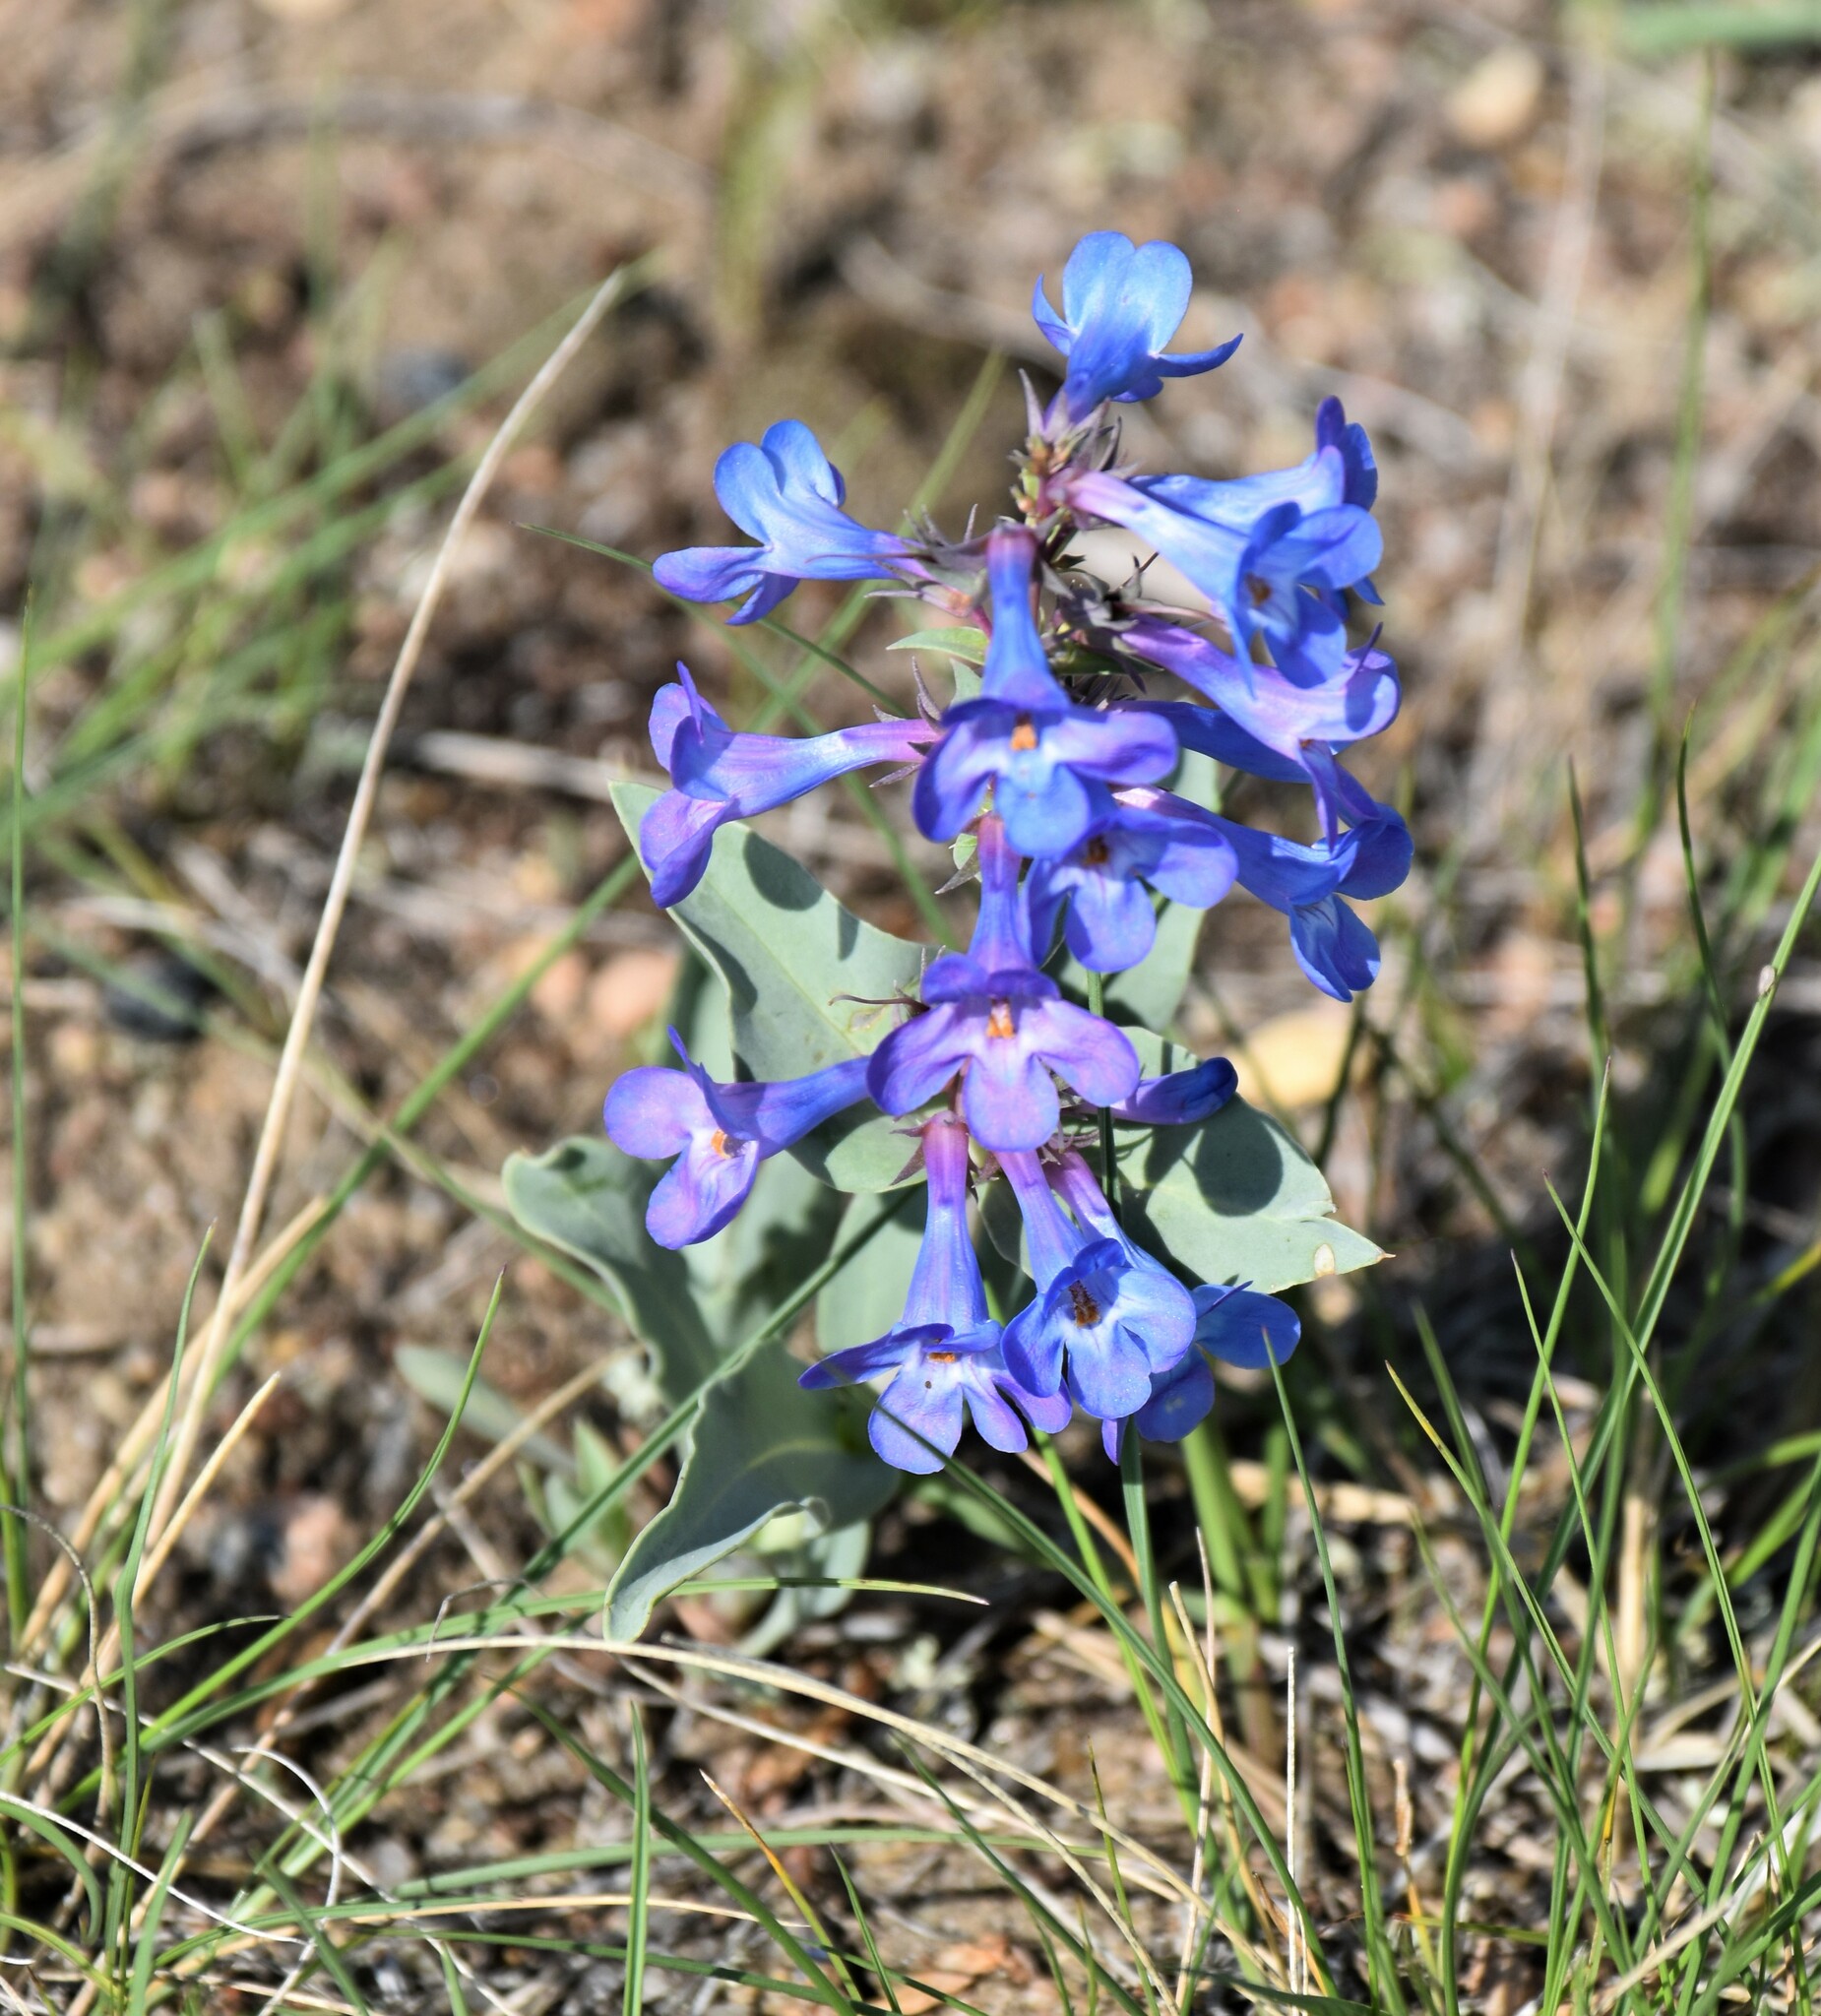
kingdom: Plantae
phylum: Tracheophyta
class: Magnoliopsida
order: Lamiales
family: Plantaginaceae
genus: Penstemon
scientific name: Penstemon nitidus
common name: Shining penstemon
